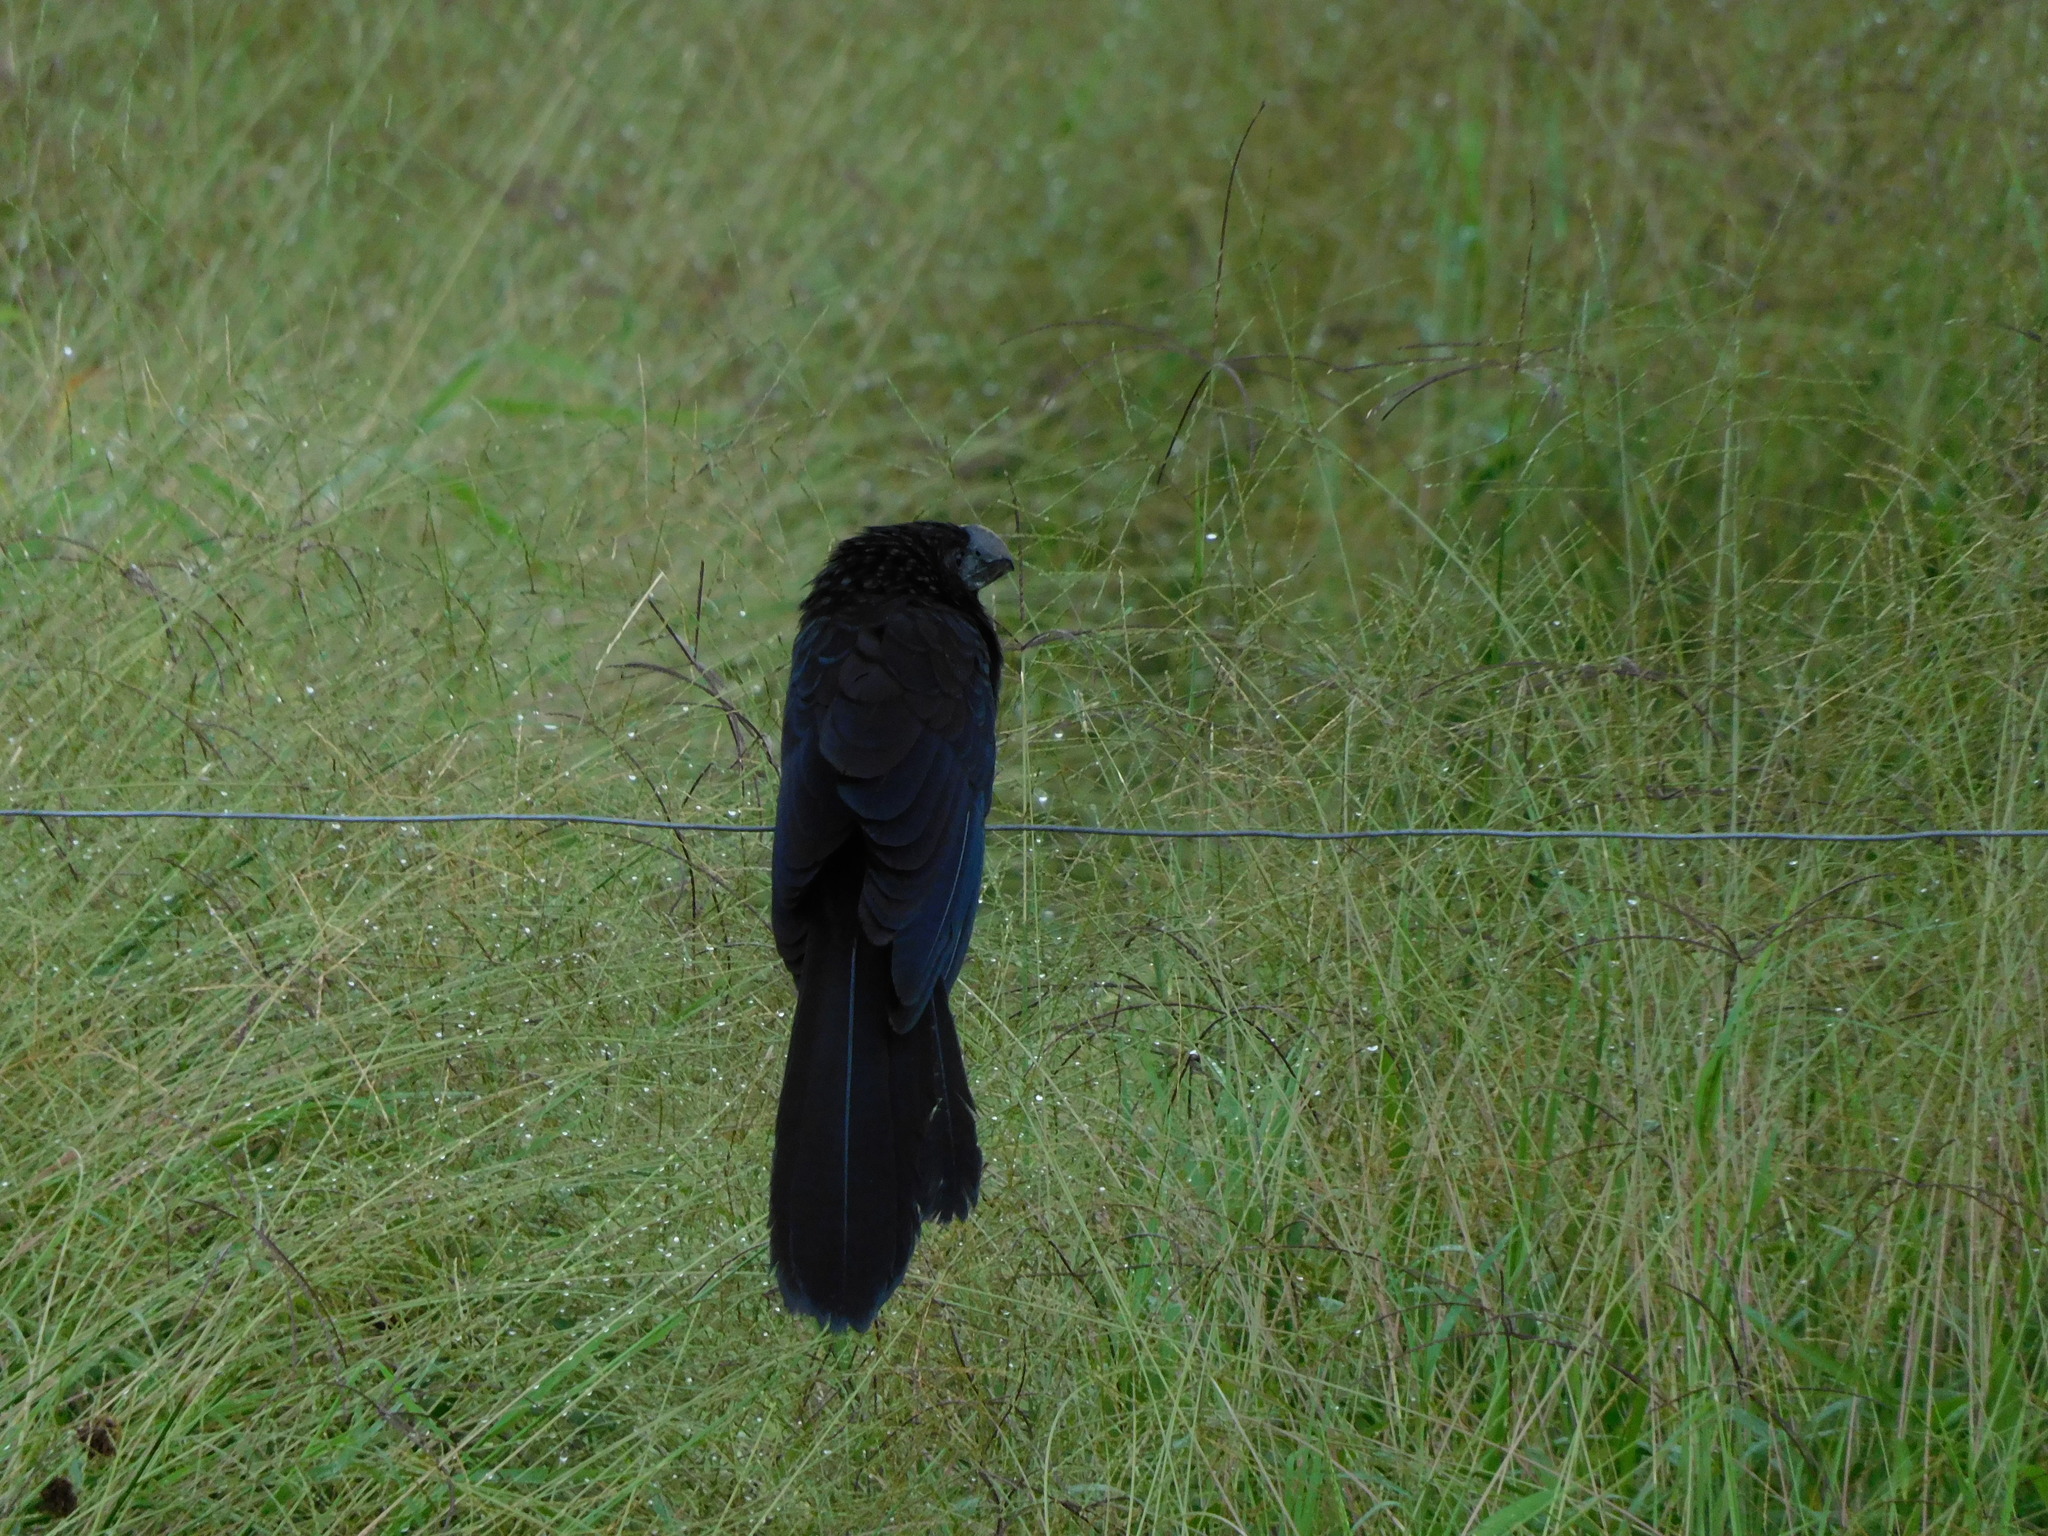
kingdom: Animalia
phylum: Chordata
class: Aves
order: Cuculiformes
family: Cuculidae
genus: Crotophaga
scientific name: Crotophaga ani
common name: Smooth-billed ani
